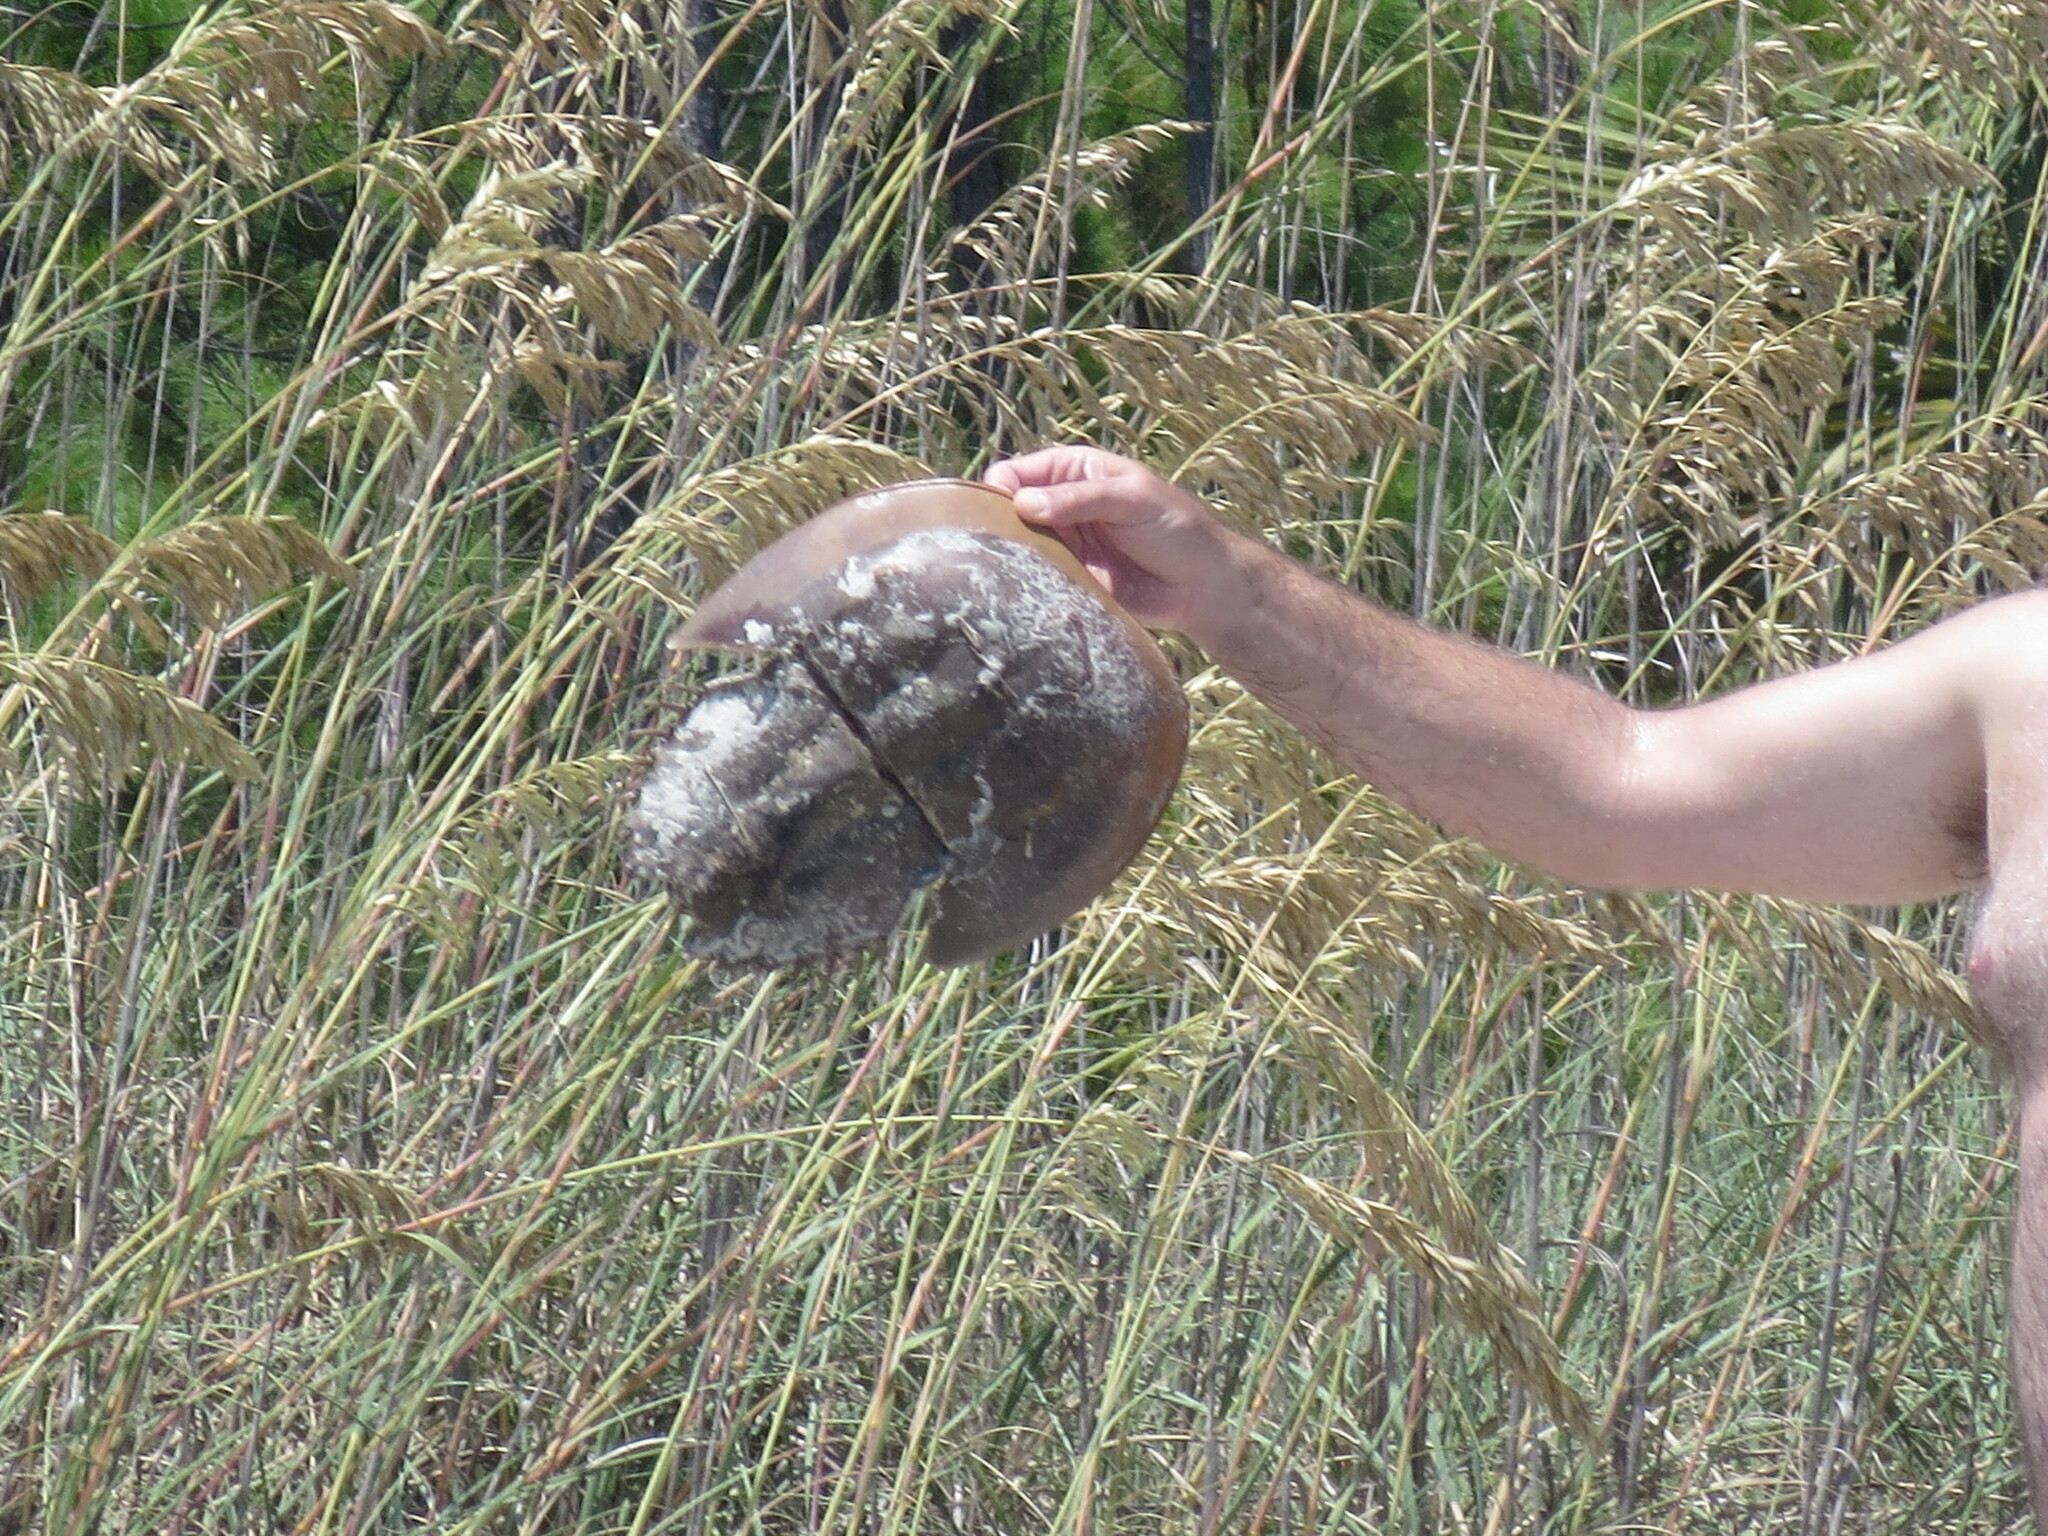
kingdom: Animalia
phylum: Arthropoda
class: Merostomata
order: Xiphosurida
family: Limulidae
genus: Limulus
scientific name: Limulus polyphemus
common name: Horseshoe crab
